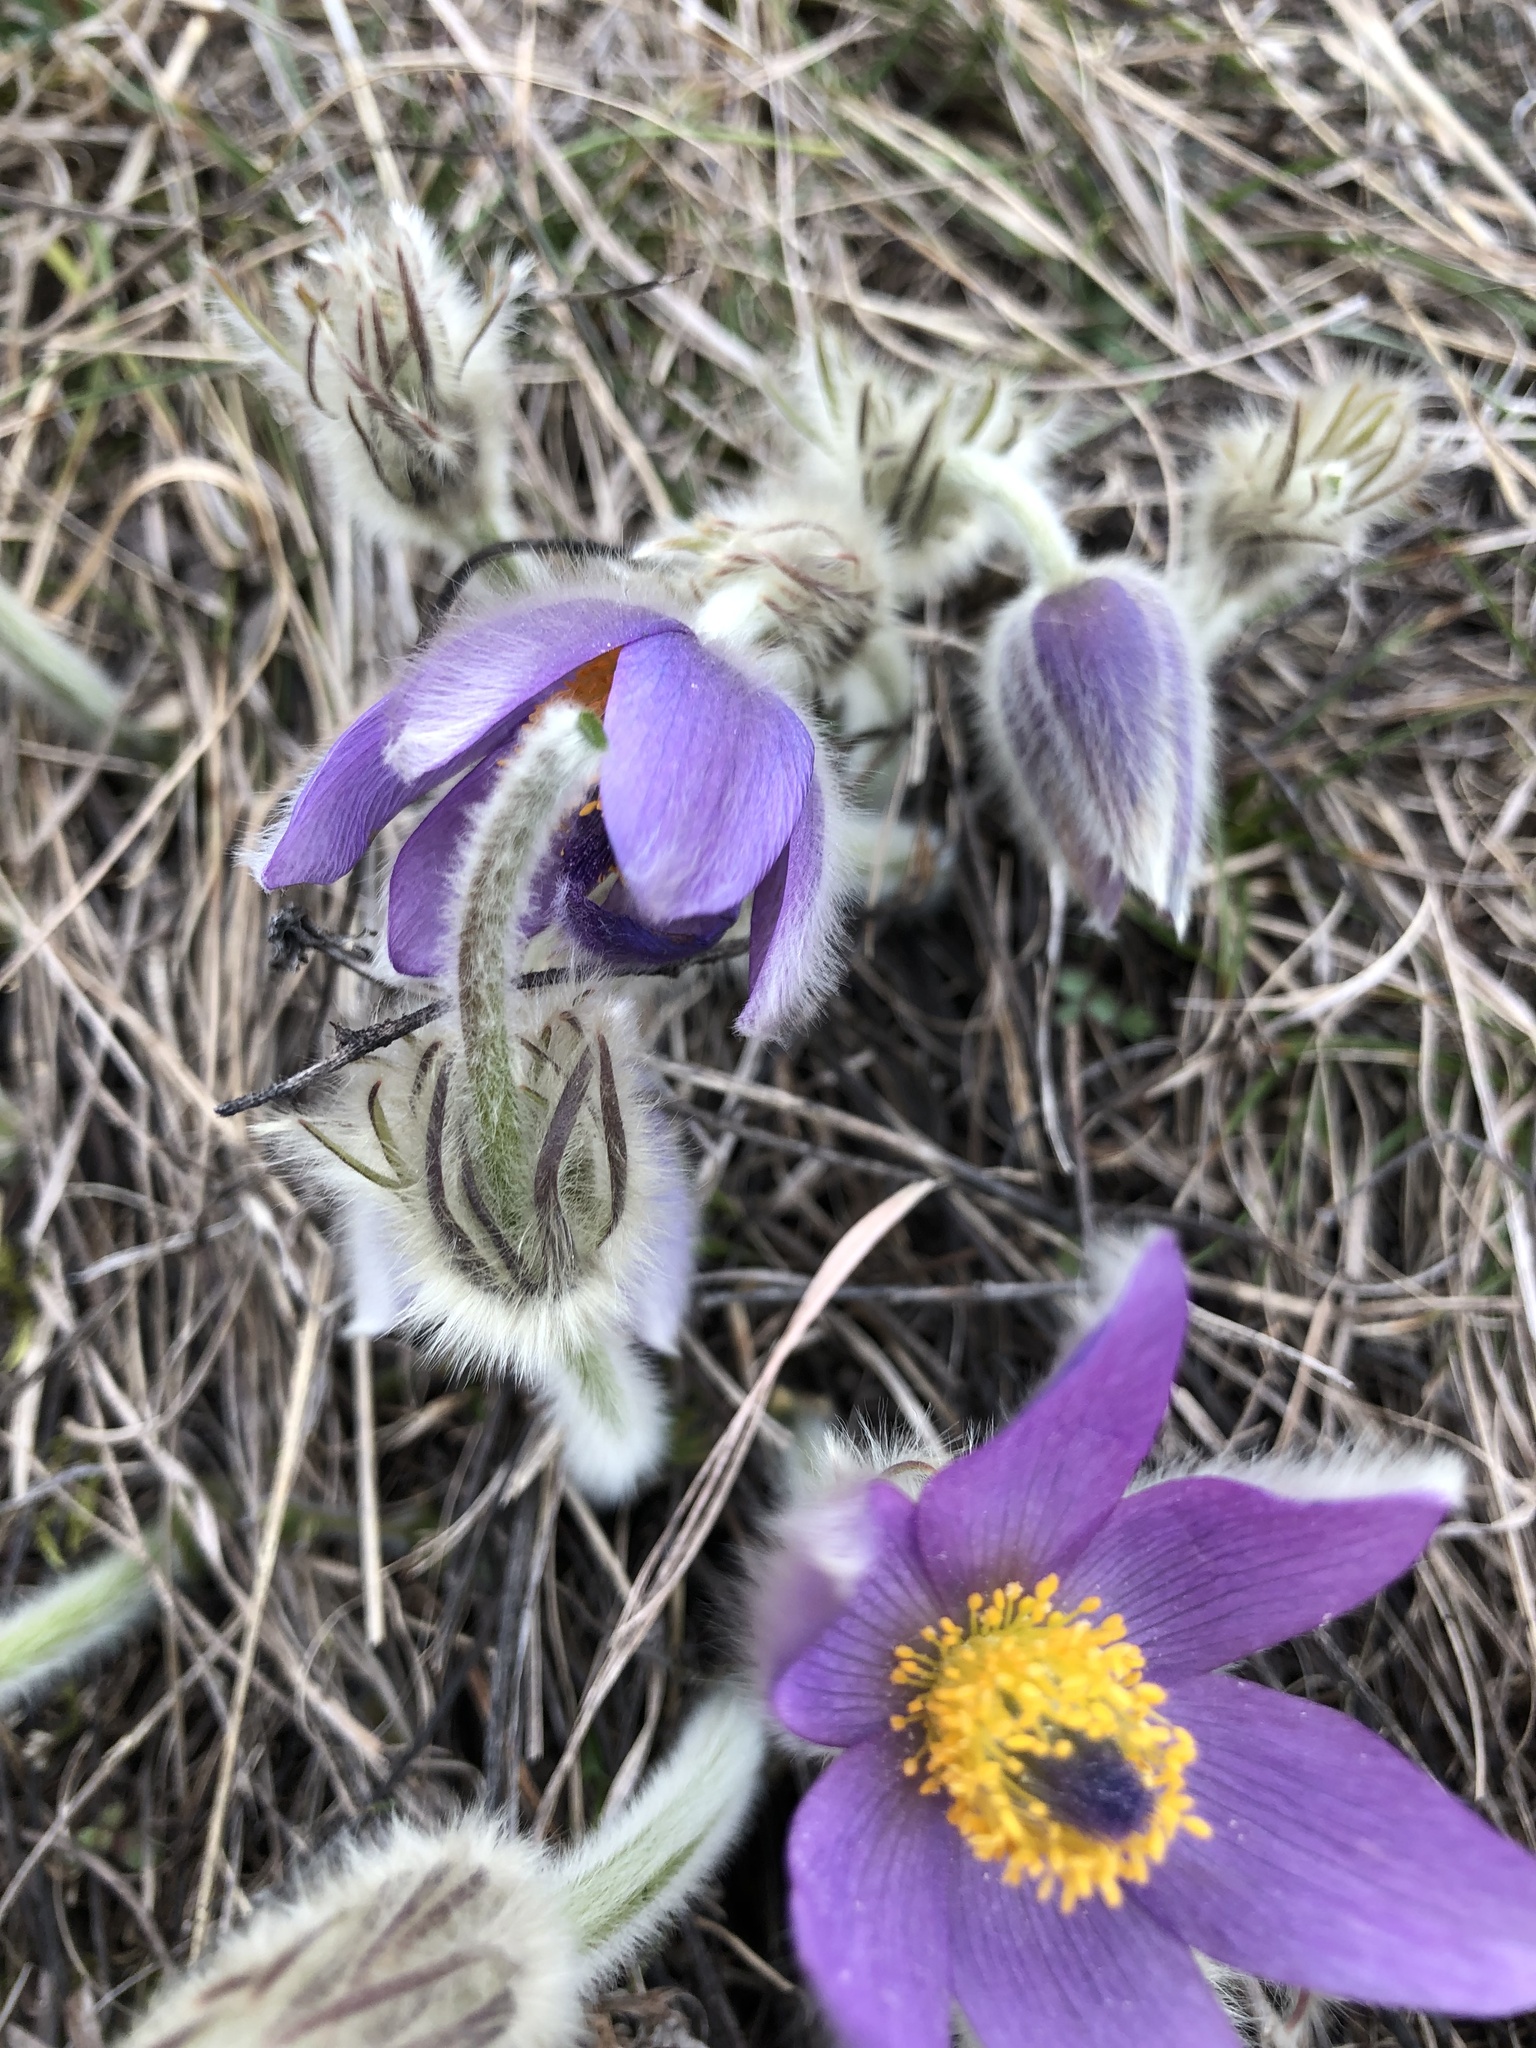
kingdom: Plantae
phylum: Tracheophyta
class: Magnoliopsida
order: Ranunculales
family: Ranunculaceae
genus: Pulsatilla
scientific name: Pulsatilla grandis
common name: Greater pasque flower
